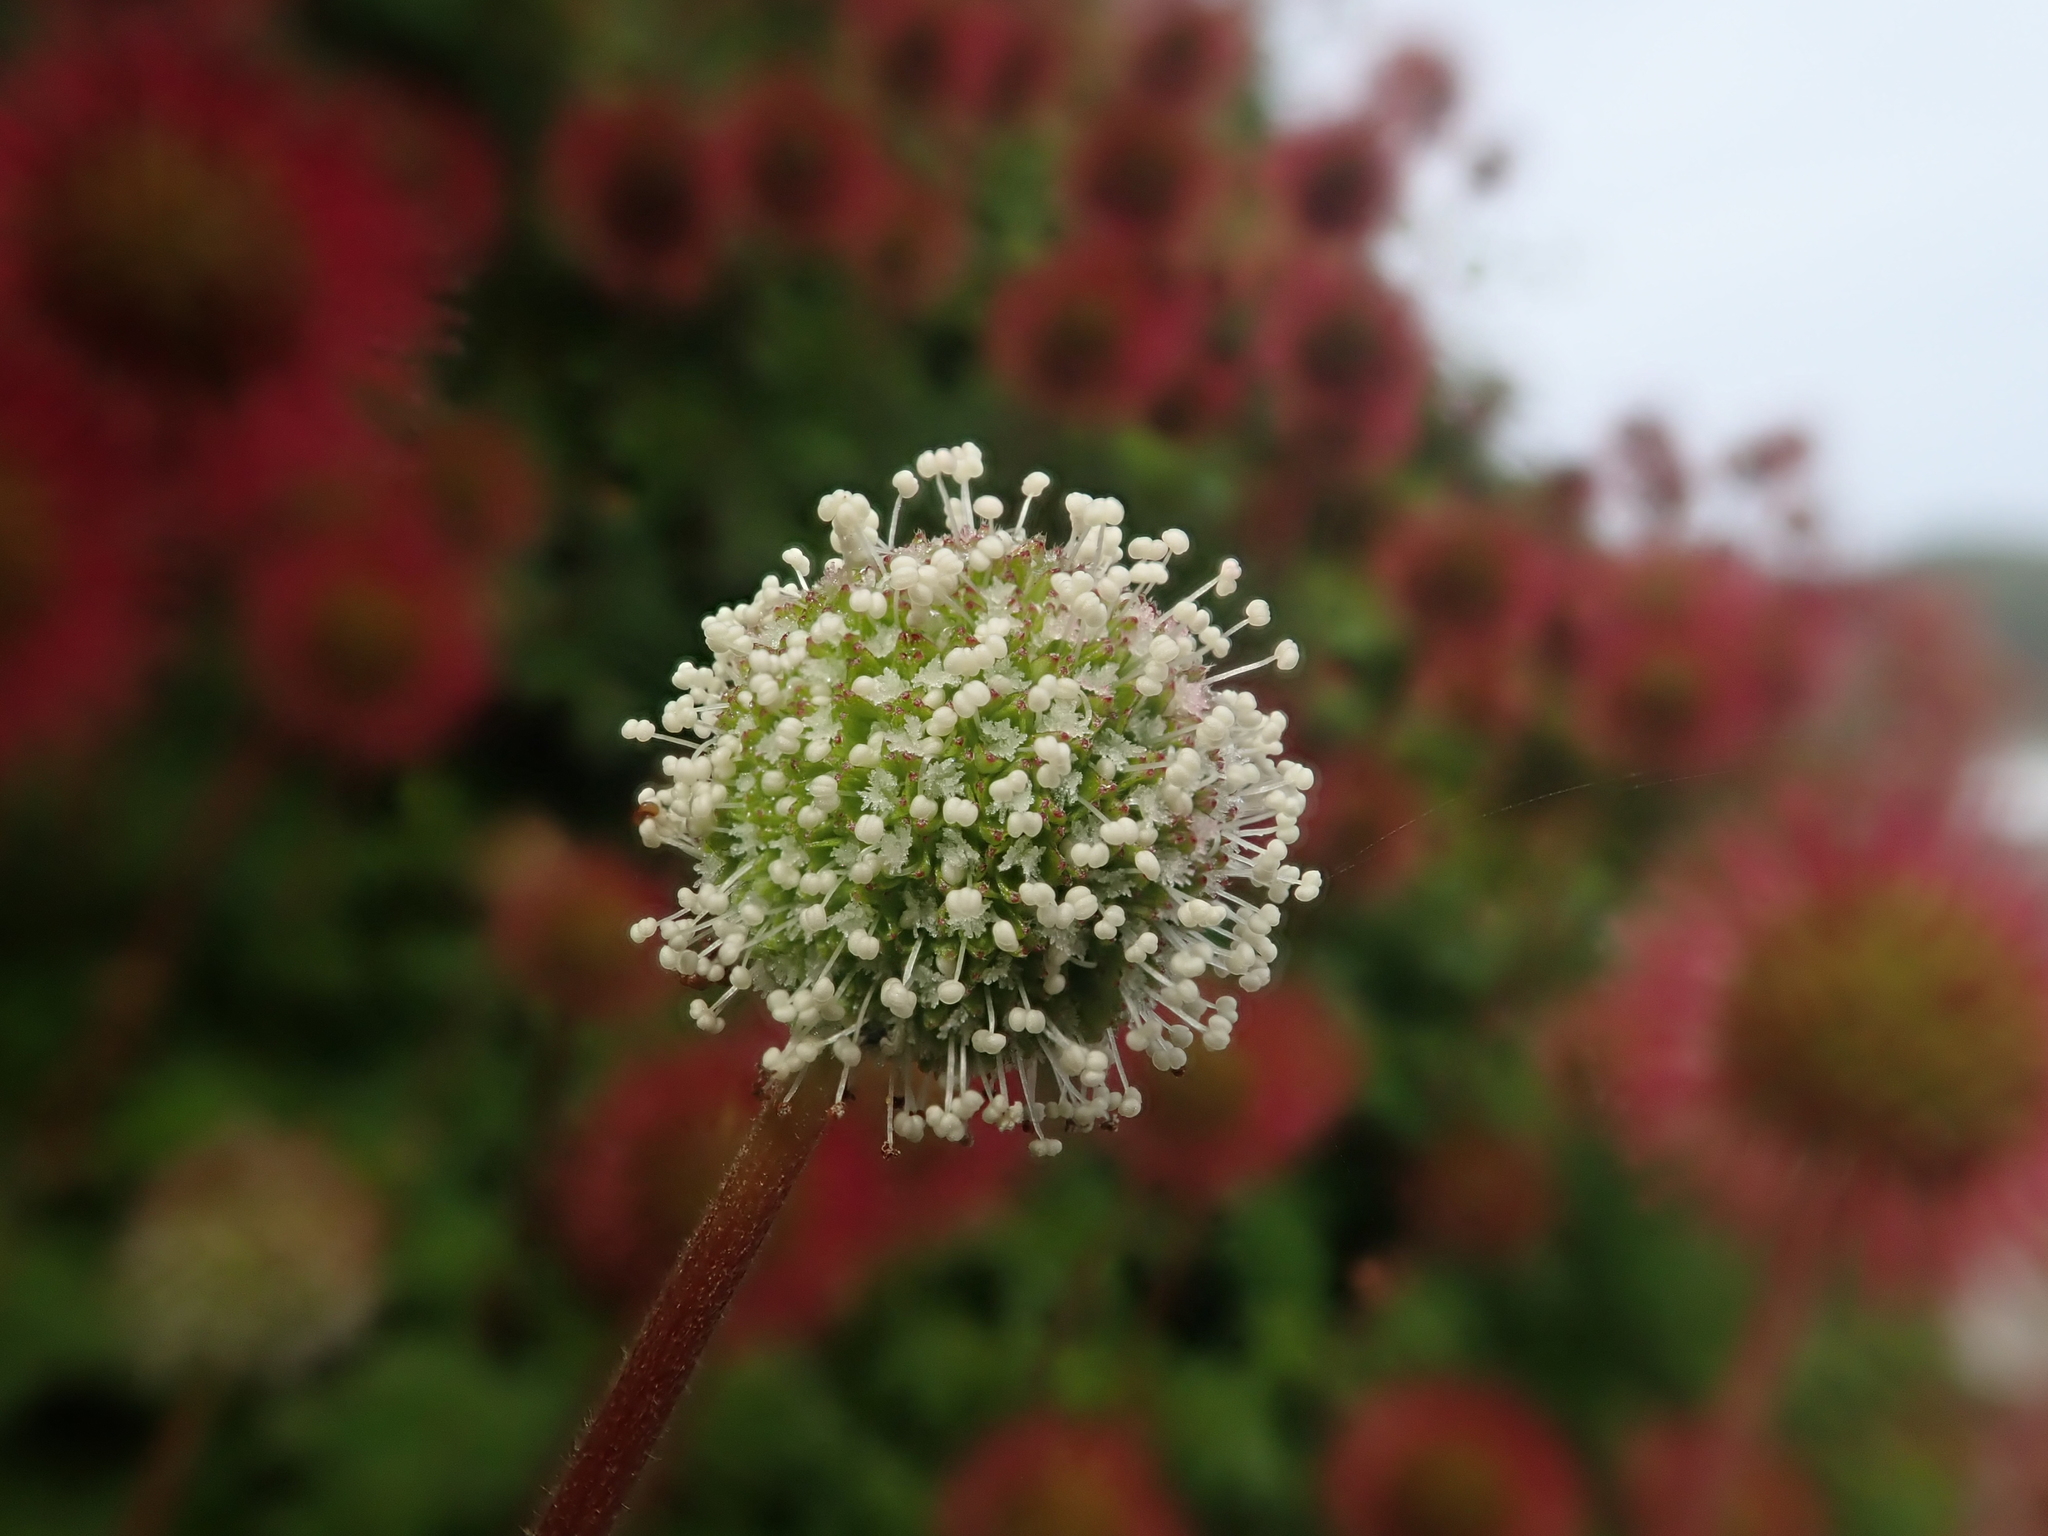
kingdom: Plantae
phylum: Tracheophyta
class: Magnoliopsida
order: Rosales
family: Rosaceae
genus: Acaena
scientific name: Acaena ovalifolia
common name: Two-spined acaena
